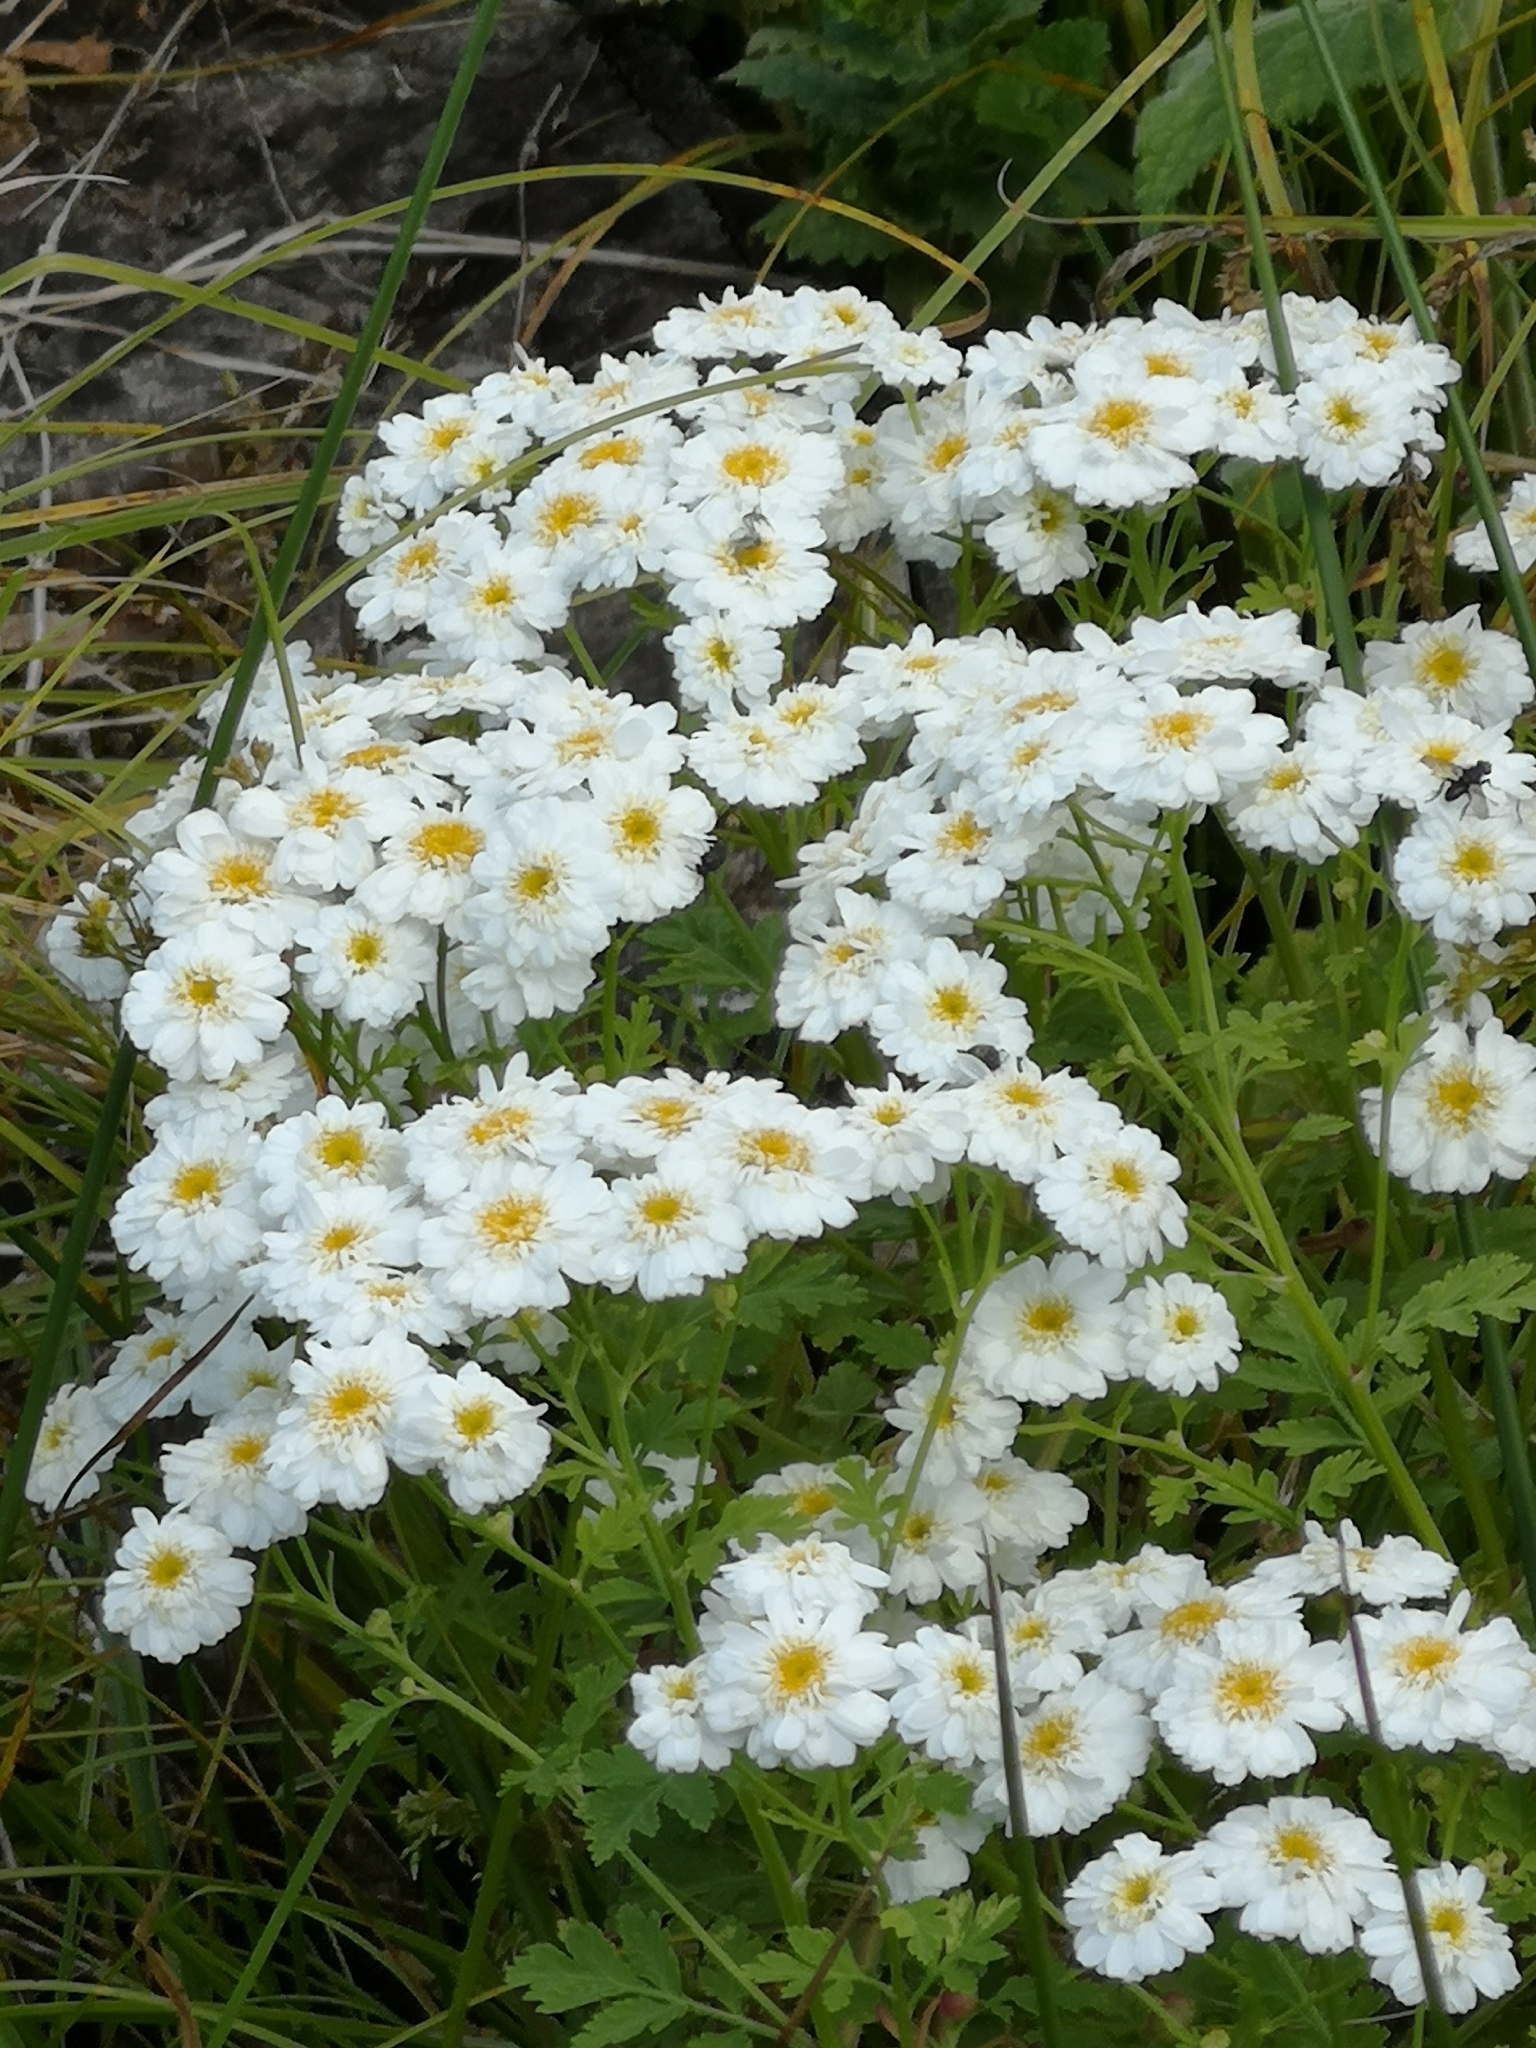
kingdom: Plantae
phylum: Tracheophyta
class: Magnoliopsida
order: Asterales
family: Asteraceae
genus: Tanacetum
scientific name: Tanacetum parthenium
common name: Feverfew
